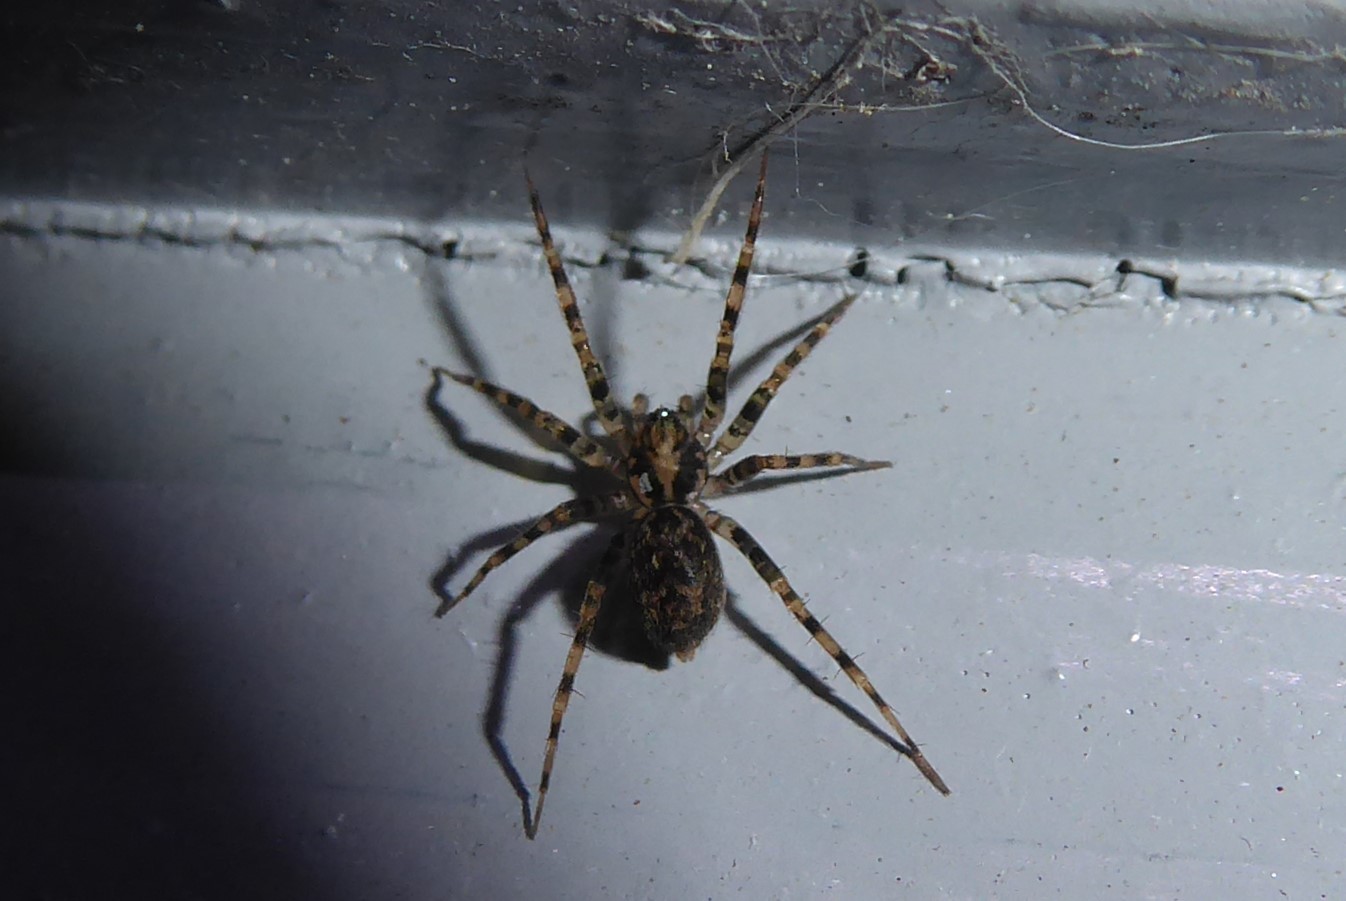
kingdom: Animalia
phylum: Arthropoda
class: Arachnida
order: Araneae
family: Stiphidiidae
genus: Stiphidion
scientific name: Stiphidion facetum
